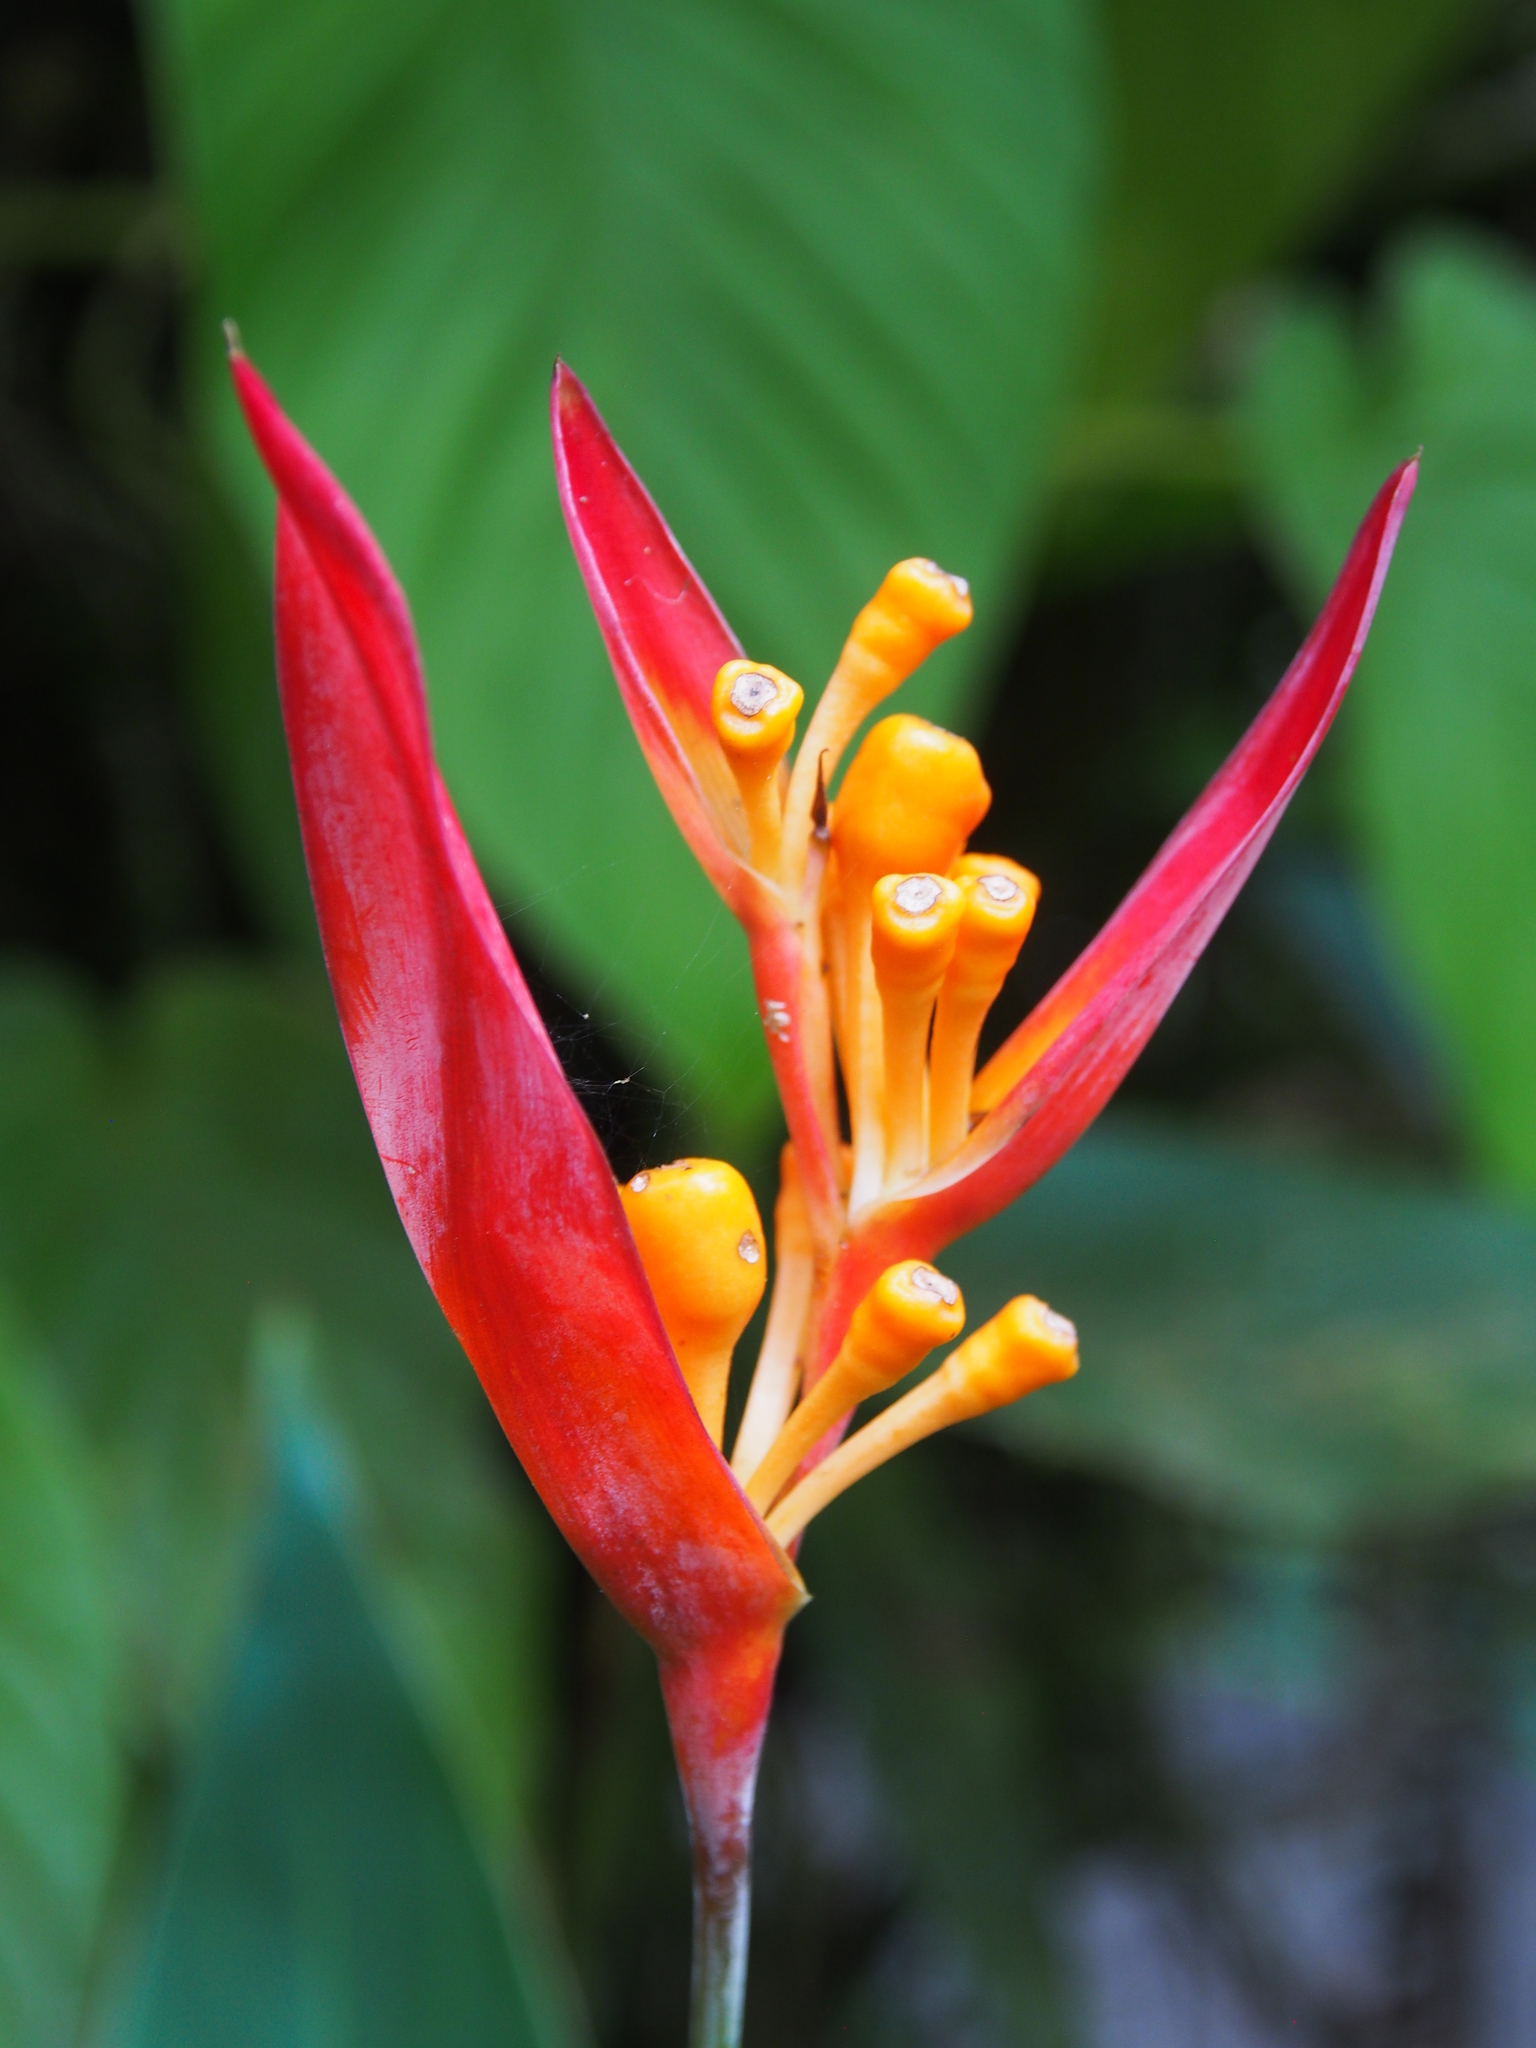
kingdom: Plantae
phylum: Tracheophyta
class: Liliopsida
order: Zingiberales
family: Heliconiaceae
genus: Heliconia
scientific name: Heliconia psittacorum
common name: Parrot's-flower
